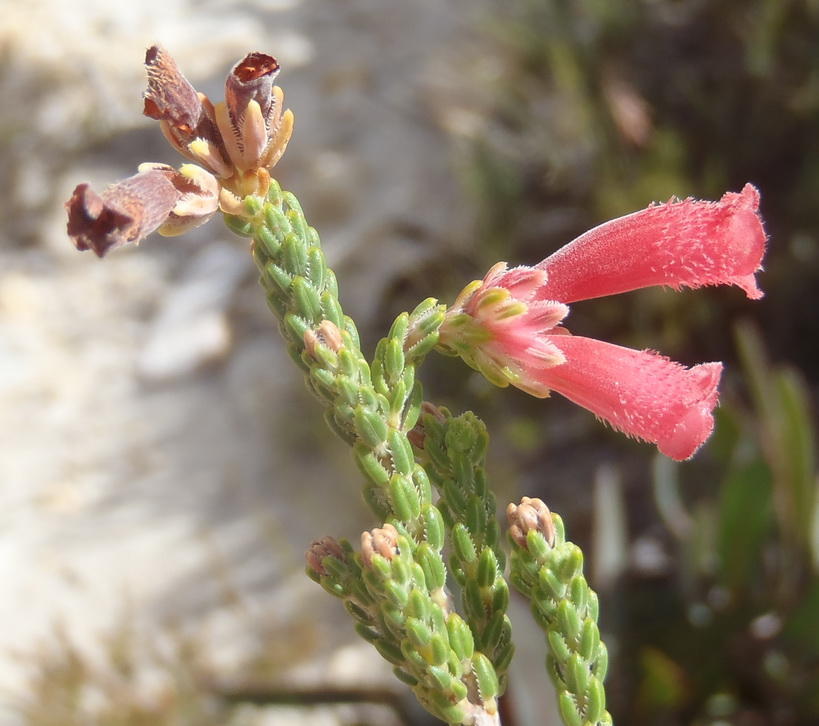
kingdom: Plantae
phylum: Tracheophyta
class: Magnoliopsida
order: Ericales
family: Ericaceae
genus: Erica
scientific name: Erica strigilifolia
